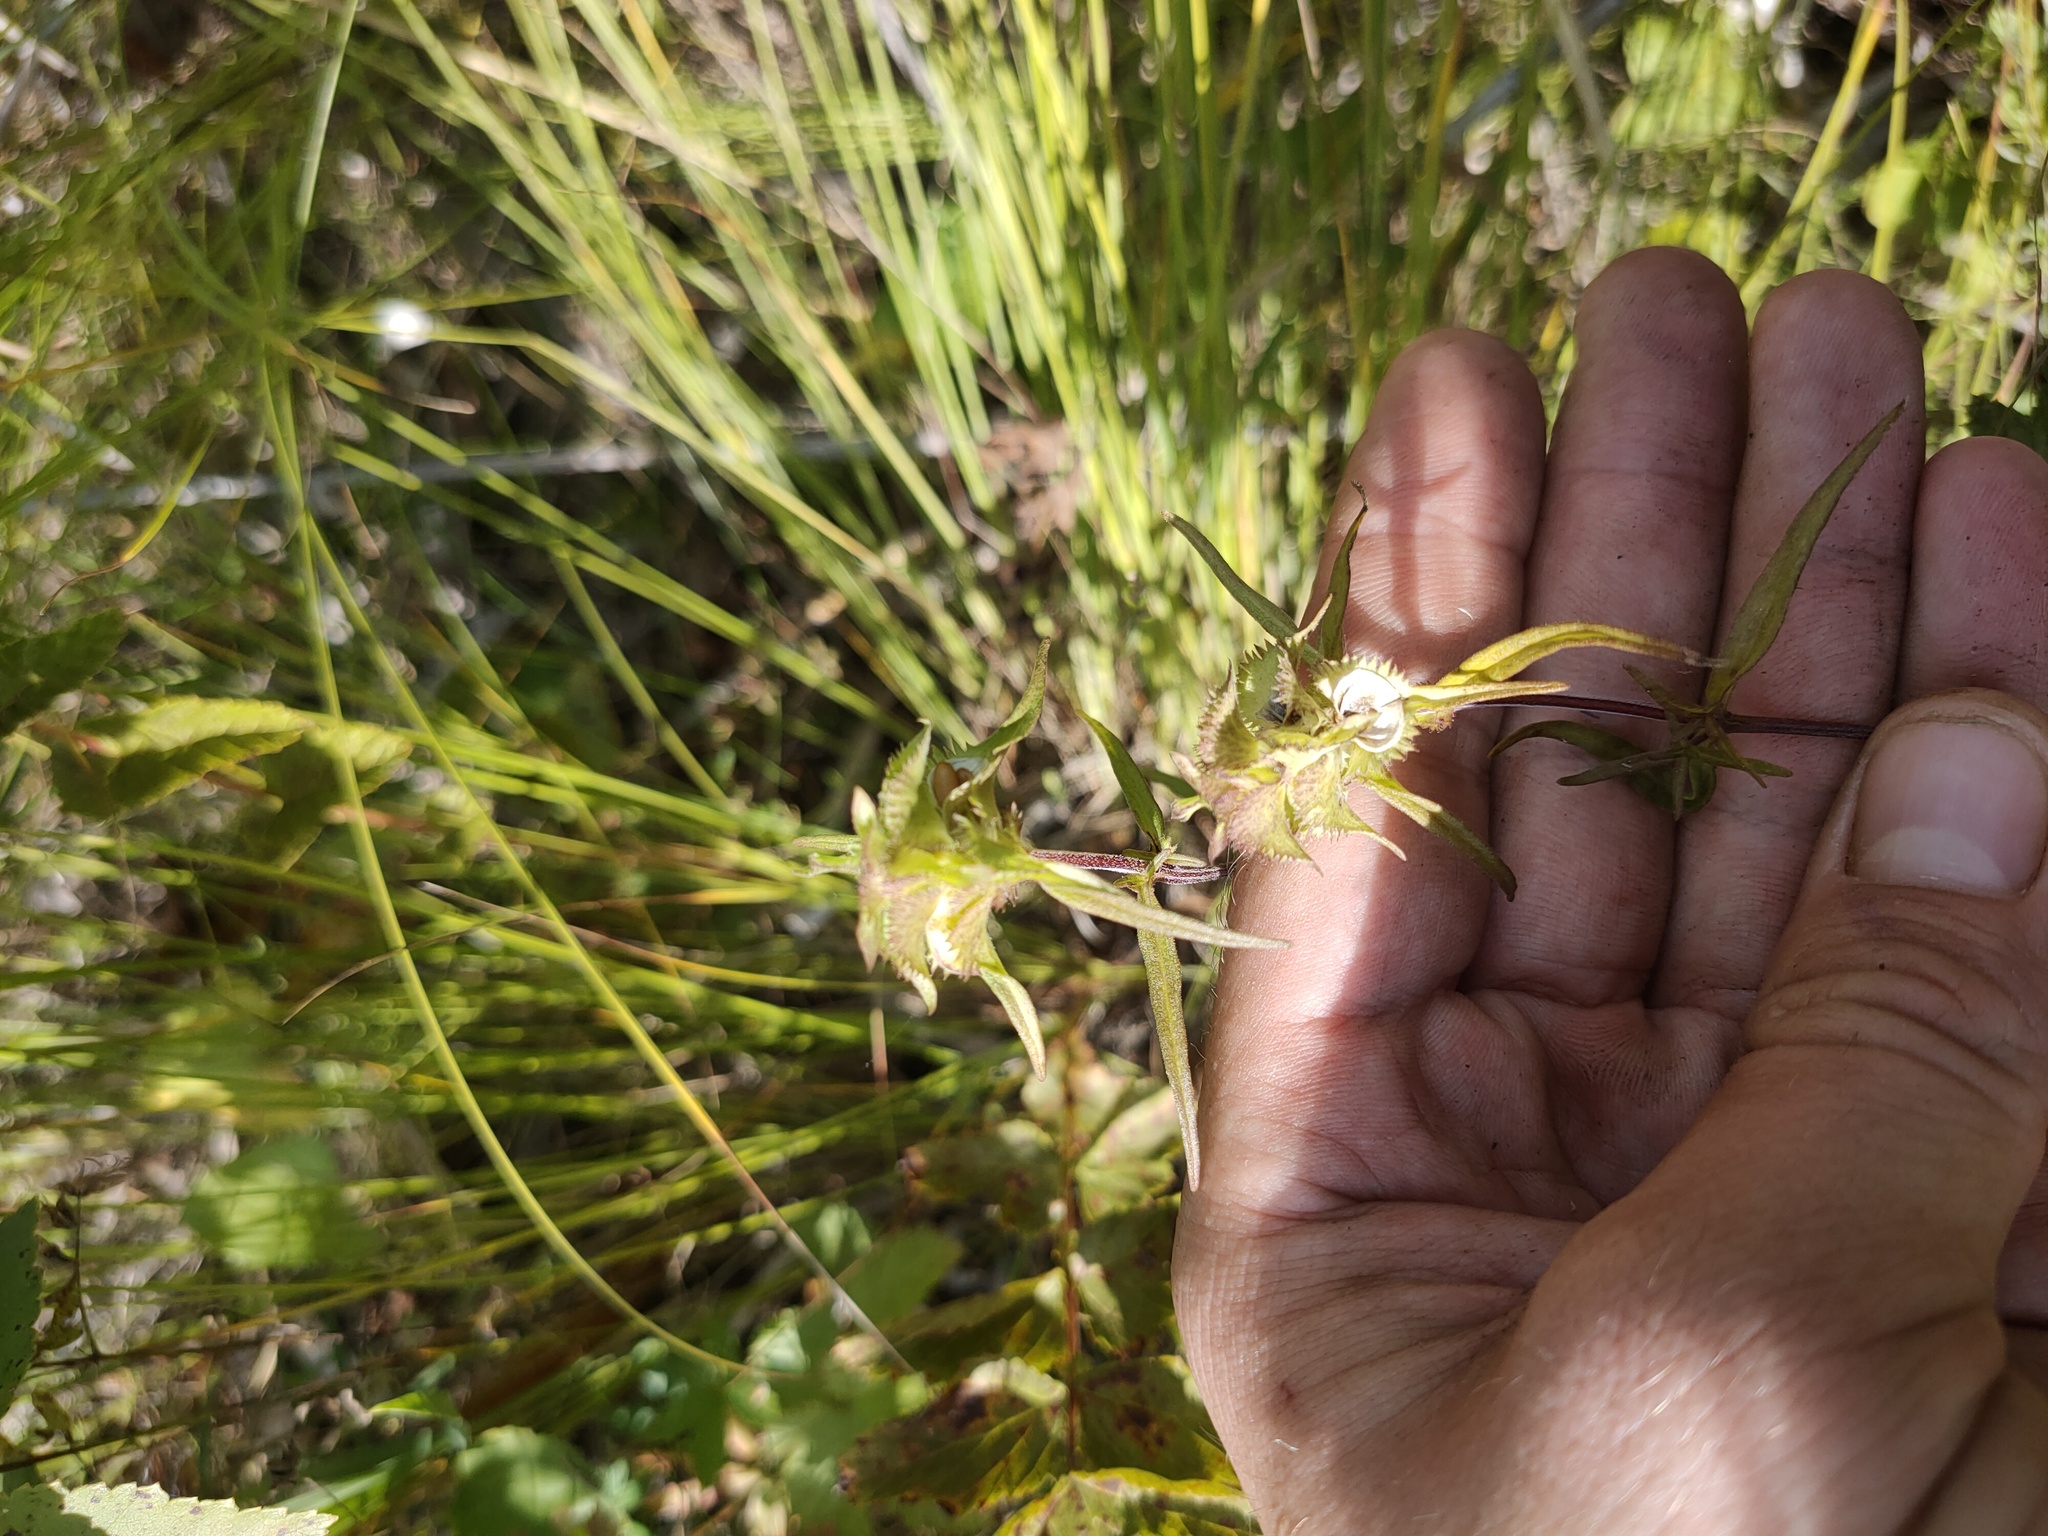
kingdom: Plantae
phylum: Tracheophyta
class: Magnoliopsida
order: Lamiales
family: Orobanchaceae
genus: Melampyrum
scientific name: Melampyrum cristatum
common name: Crested cow-wheat
